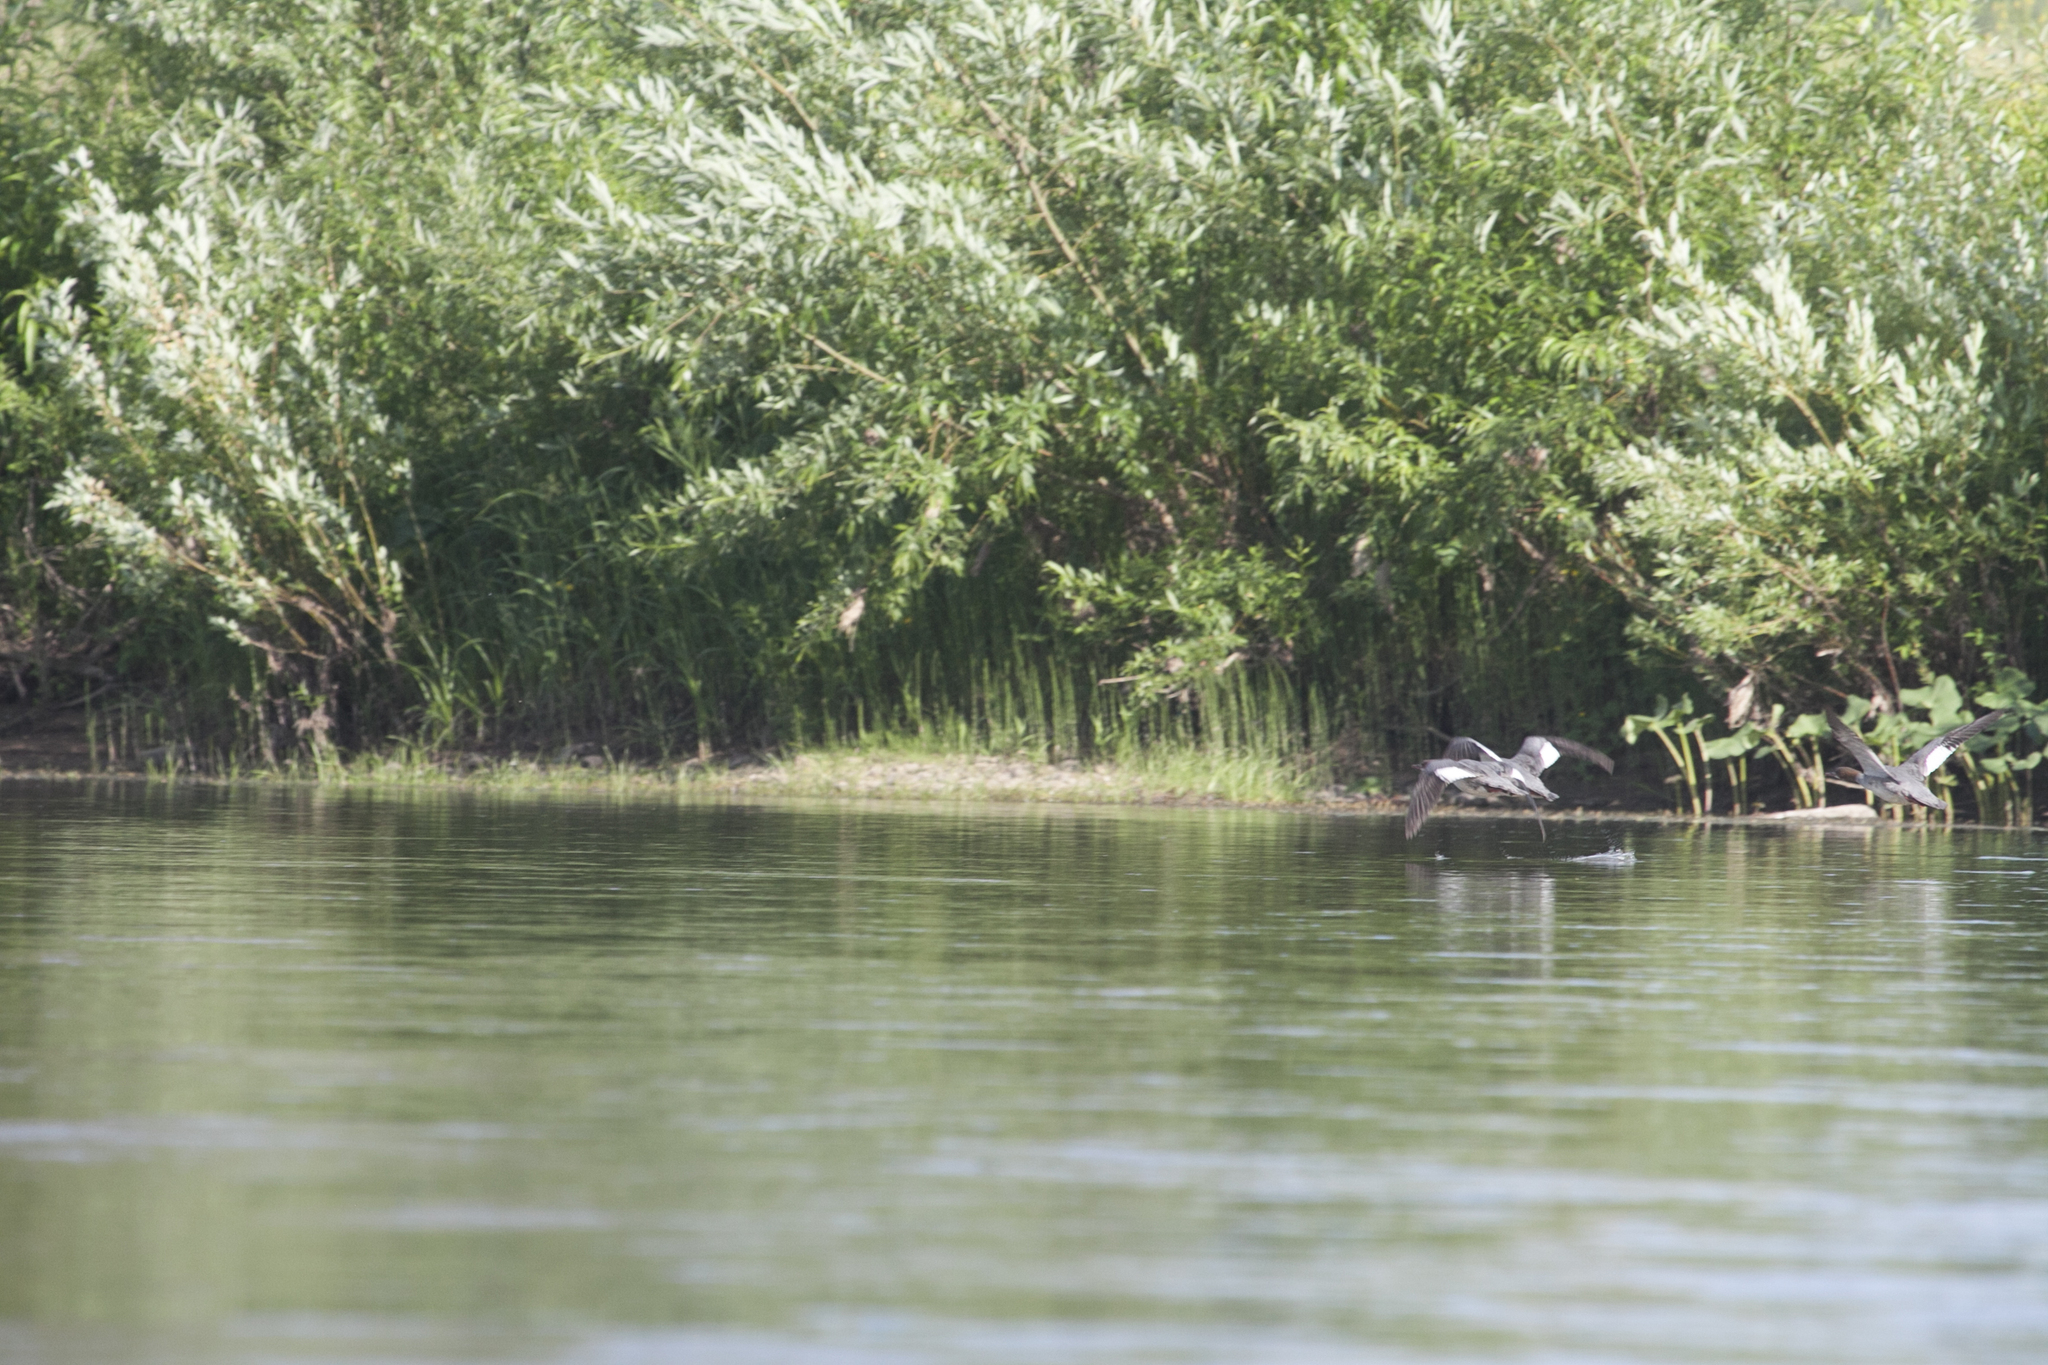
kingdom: Animalia
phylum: Chordata
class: Aves
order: Anseriformes
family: Anatidae
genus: Mergus
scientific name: Mergus merganser
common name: Common merganser
